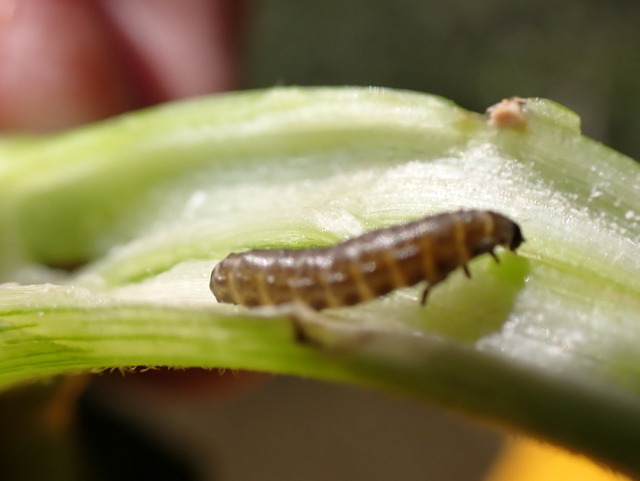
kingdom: Animalia
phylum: Arthropoda
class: Insecta
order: Coleoptera
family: Chrysomelidae
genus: Agasicles
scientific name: Agasicles hygrophila
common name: Alligatorweed flea beetle
